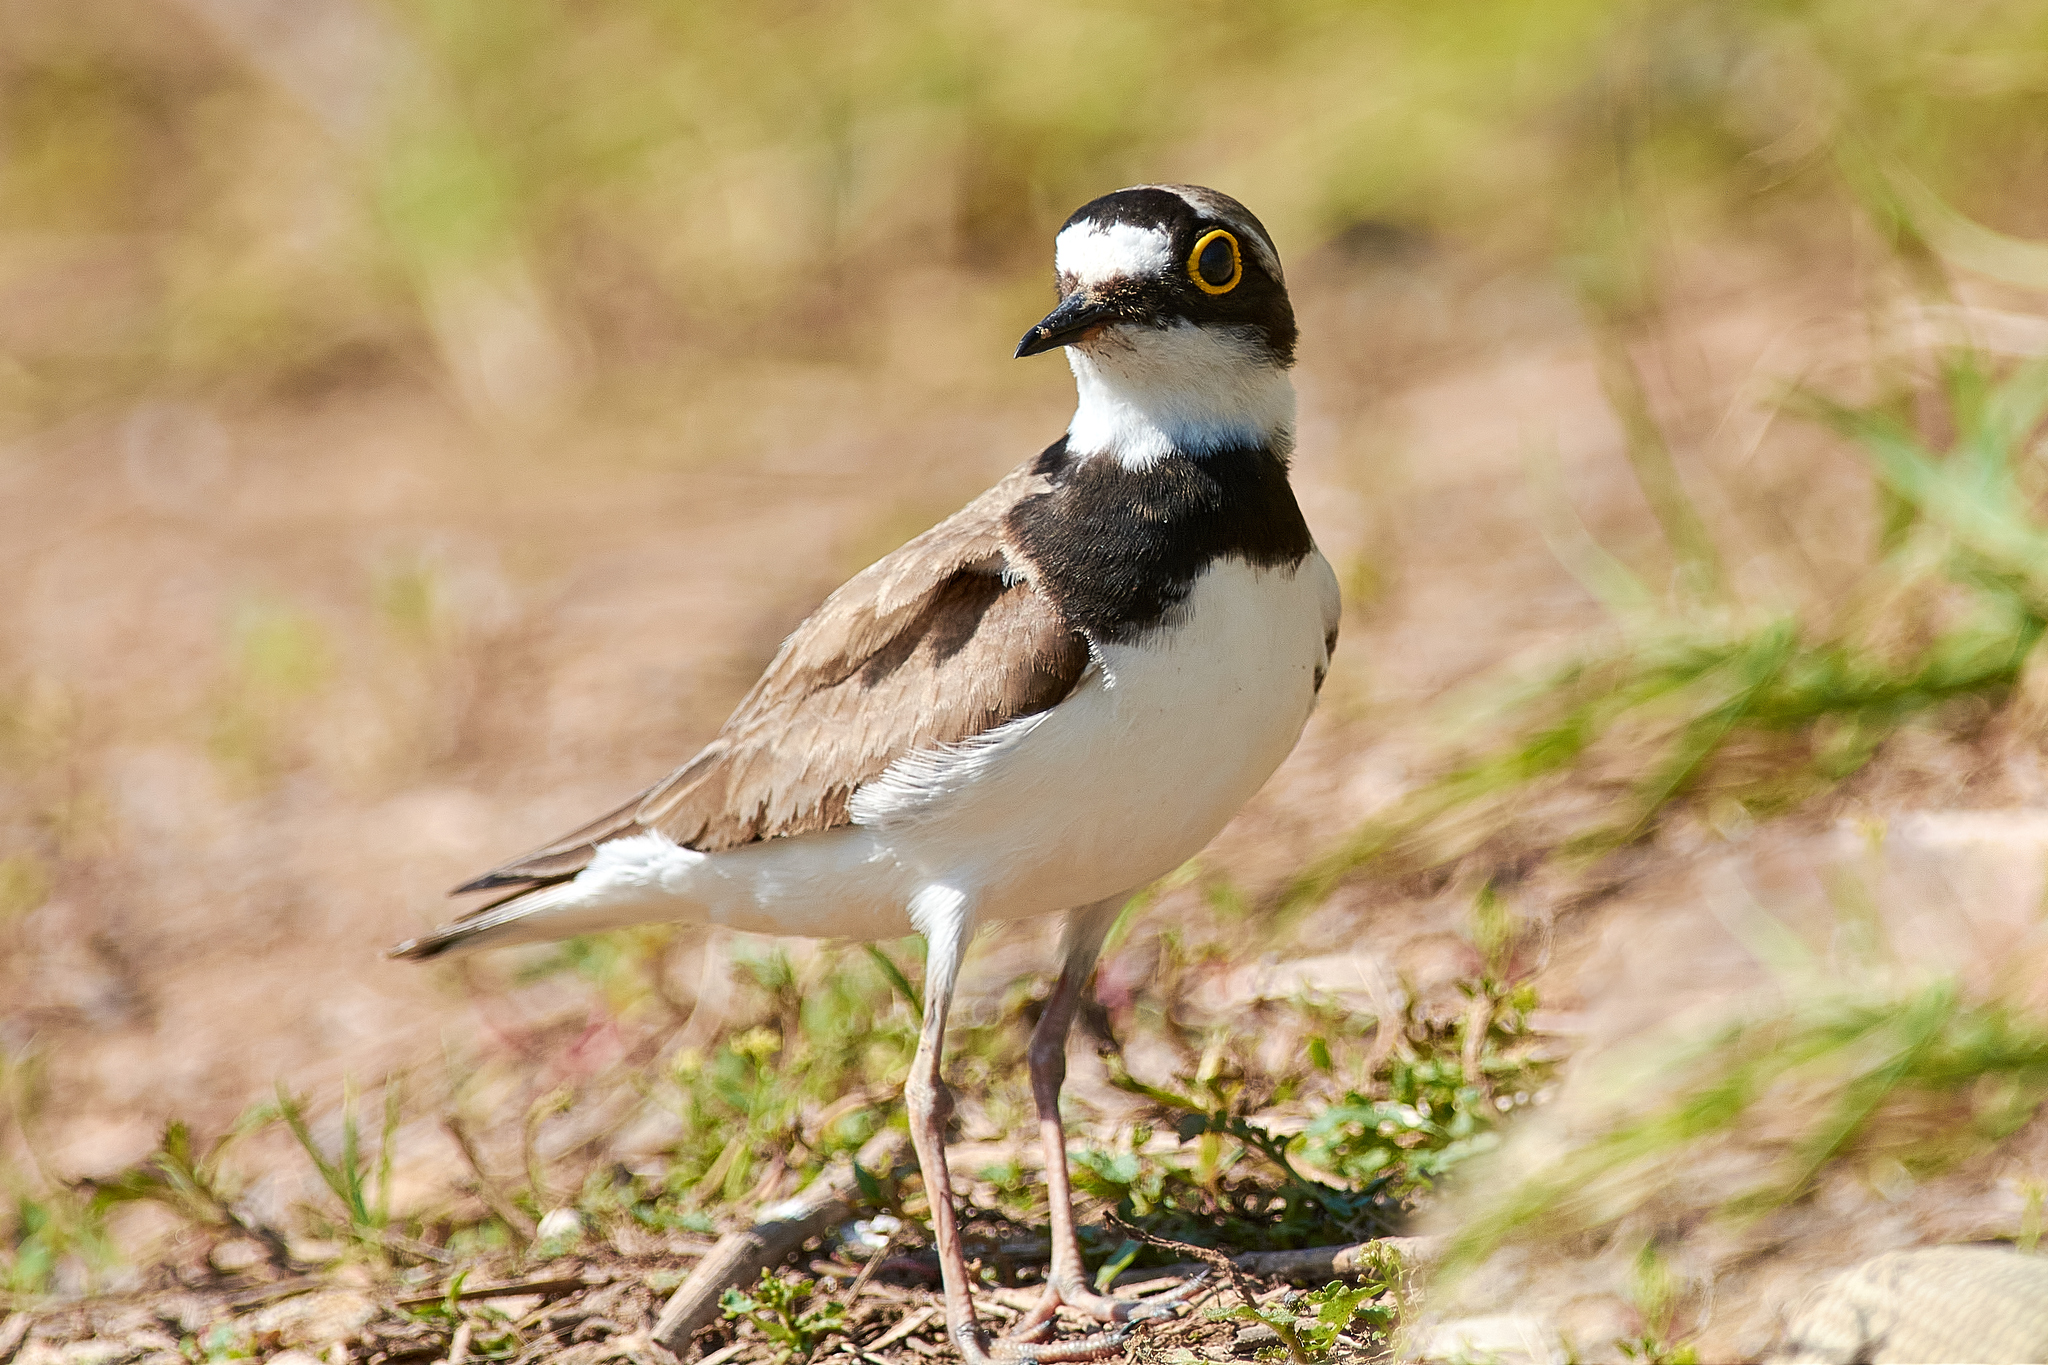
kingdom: Animalia
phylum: Chordata
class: Aves
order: Charadriiformes
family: Charadriidae
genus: Charadrius
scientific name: Charadrius dubius
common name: Little ringed plover
